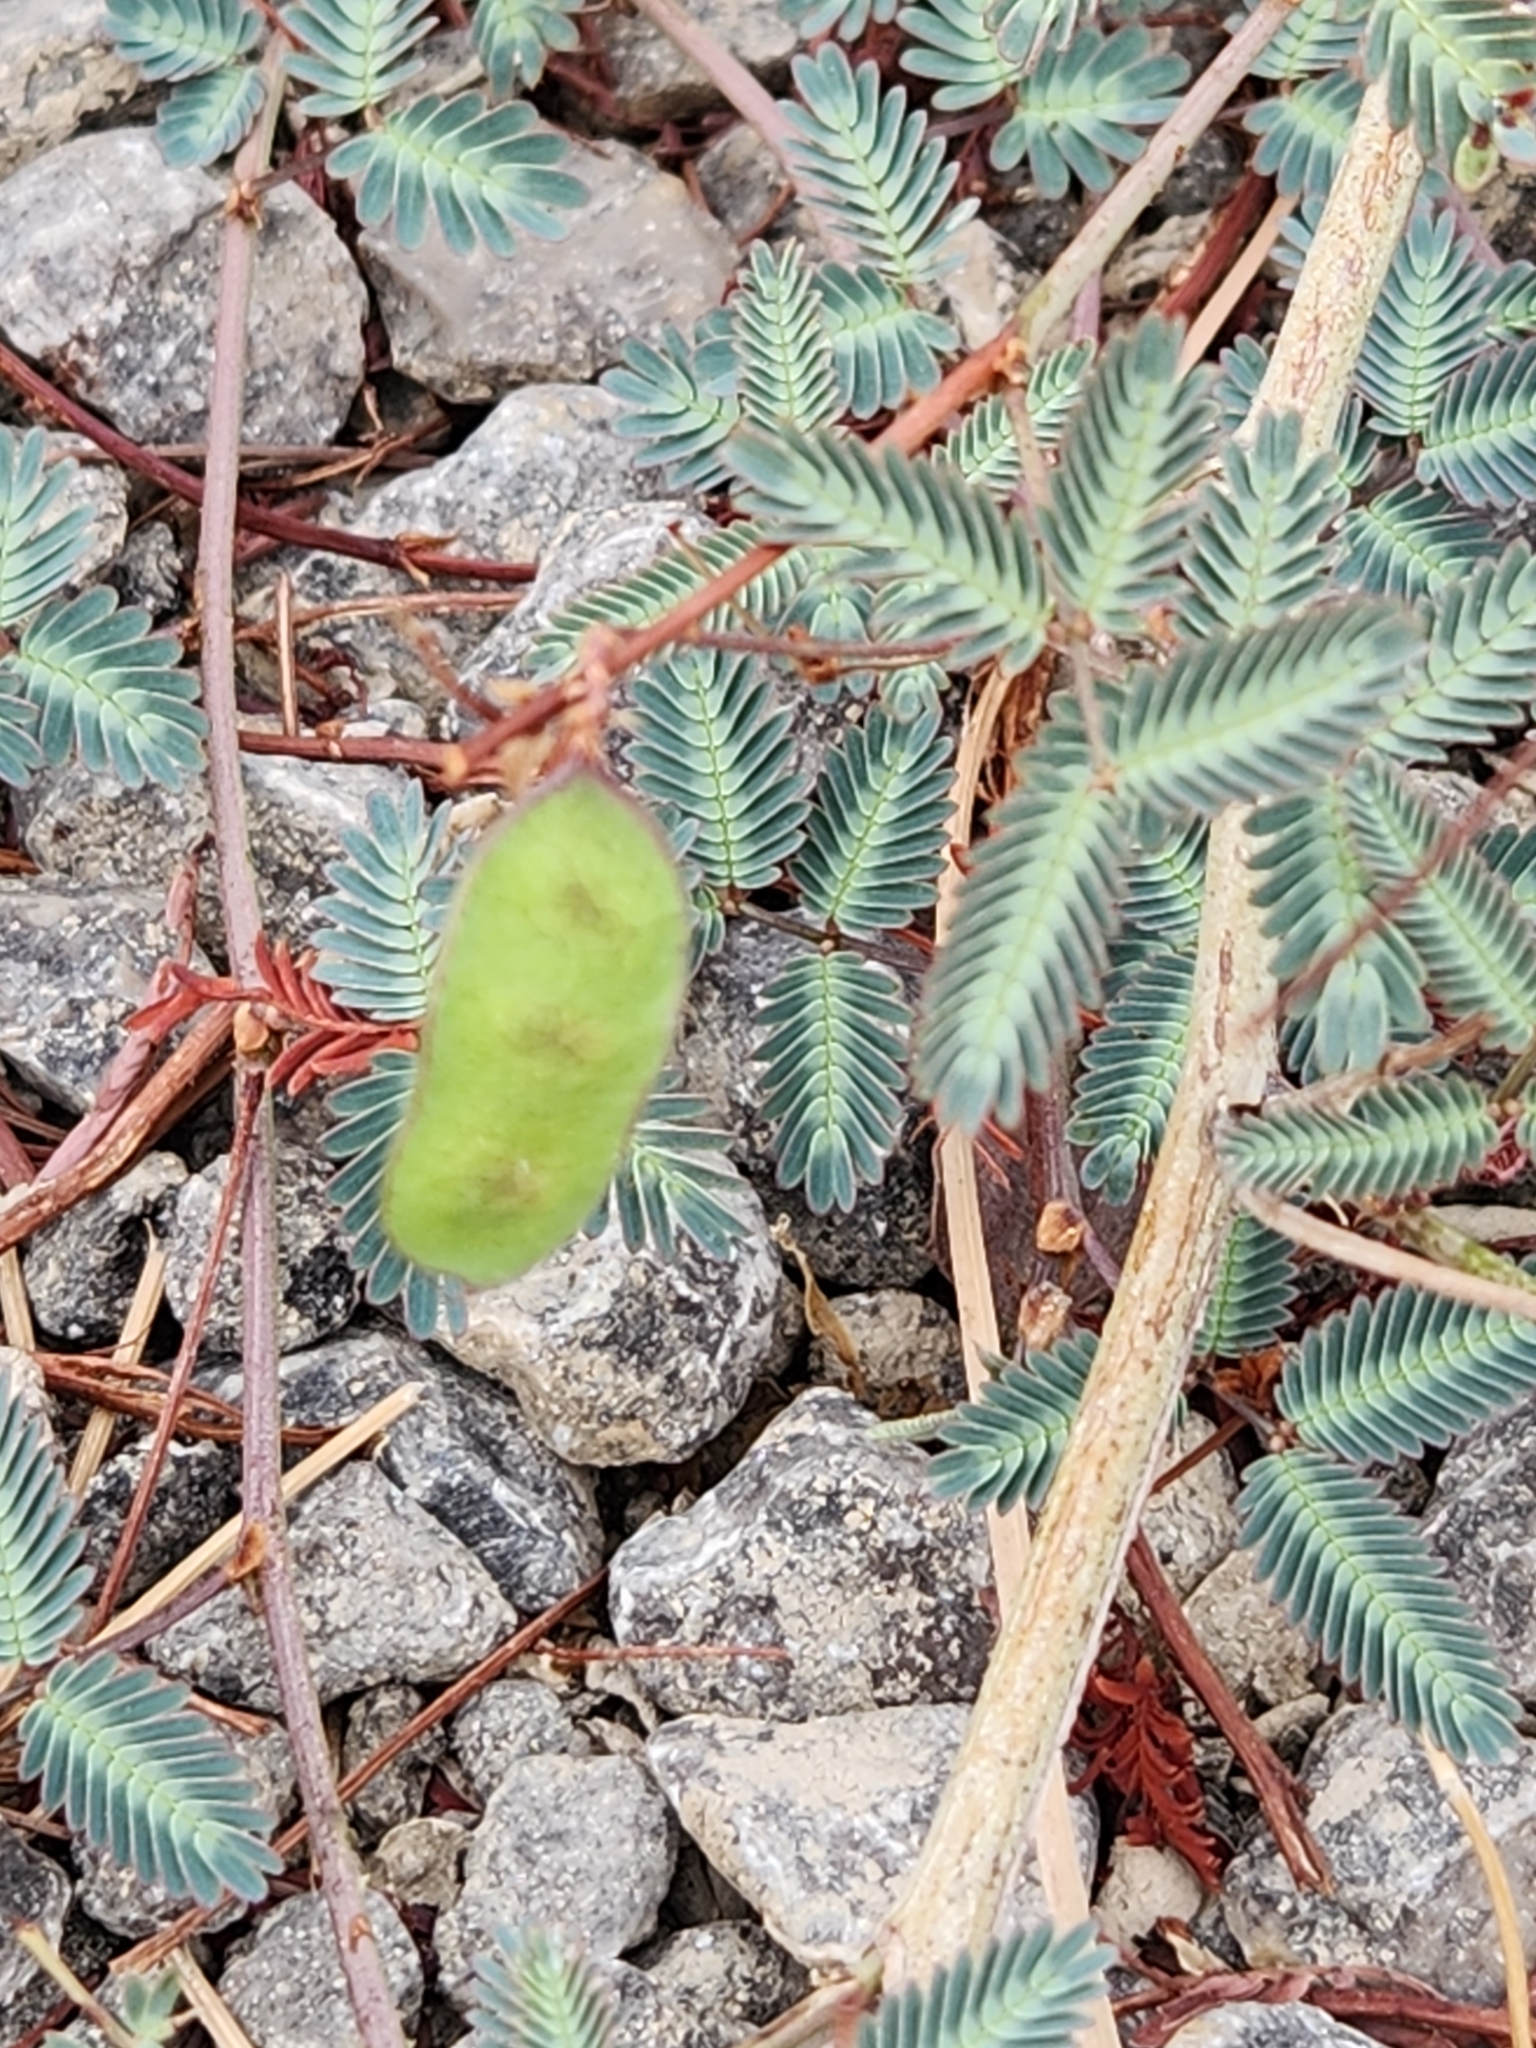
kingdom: Plantae
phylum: Tracheophyta
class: Magnoliopsida
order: Fabales
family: Fabaceae
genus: Neptunia
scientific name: Neptunia pubescens
